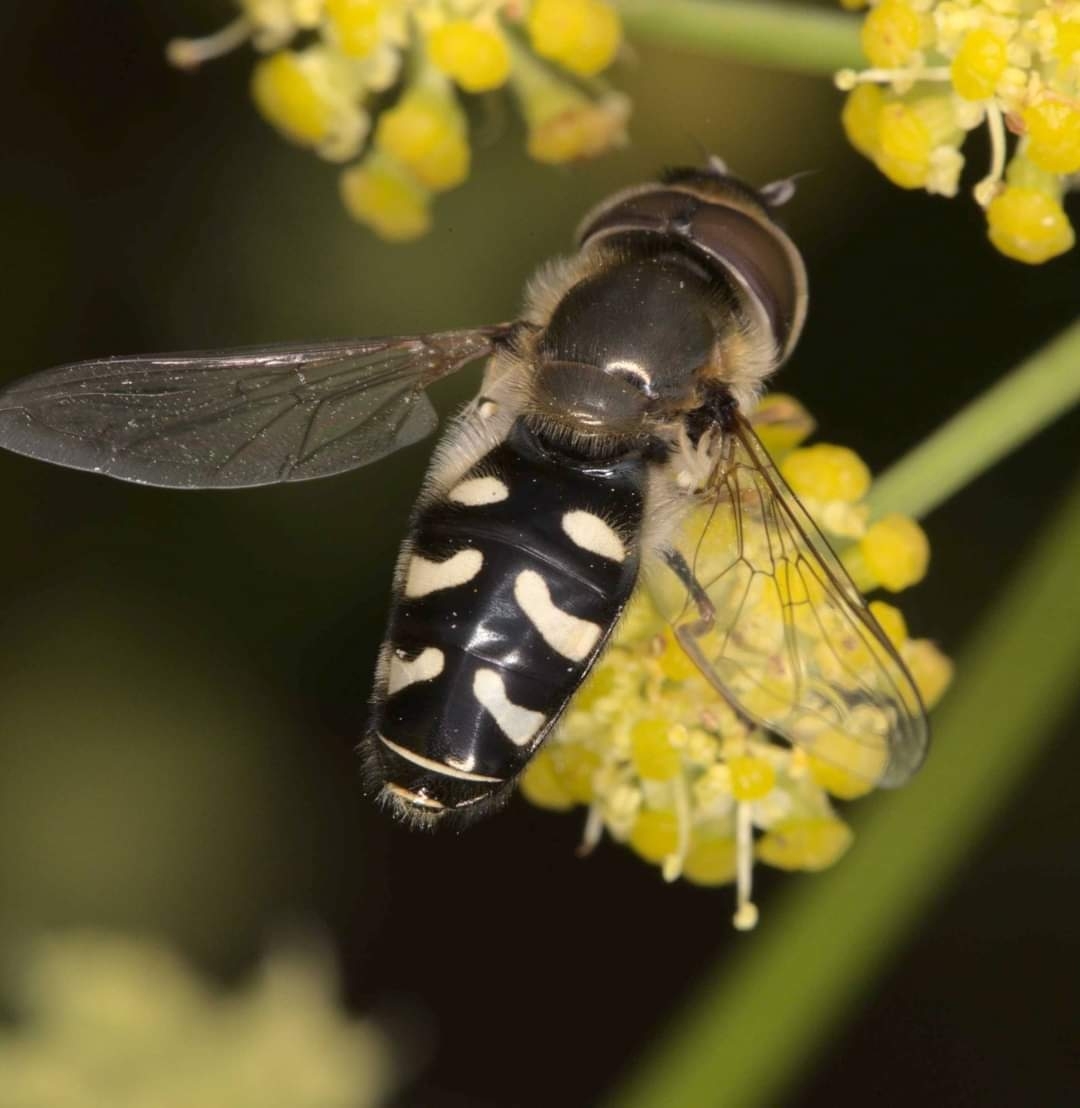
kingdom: Animalia
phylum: Arthropoda
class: Insecta
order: Diptera
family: Syrphidae
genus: Scaeva
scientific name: Scaeva pyrastri
